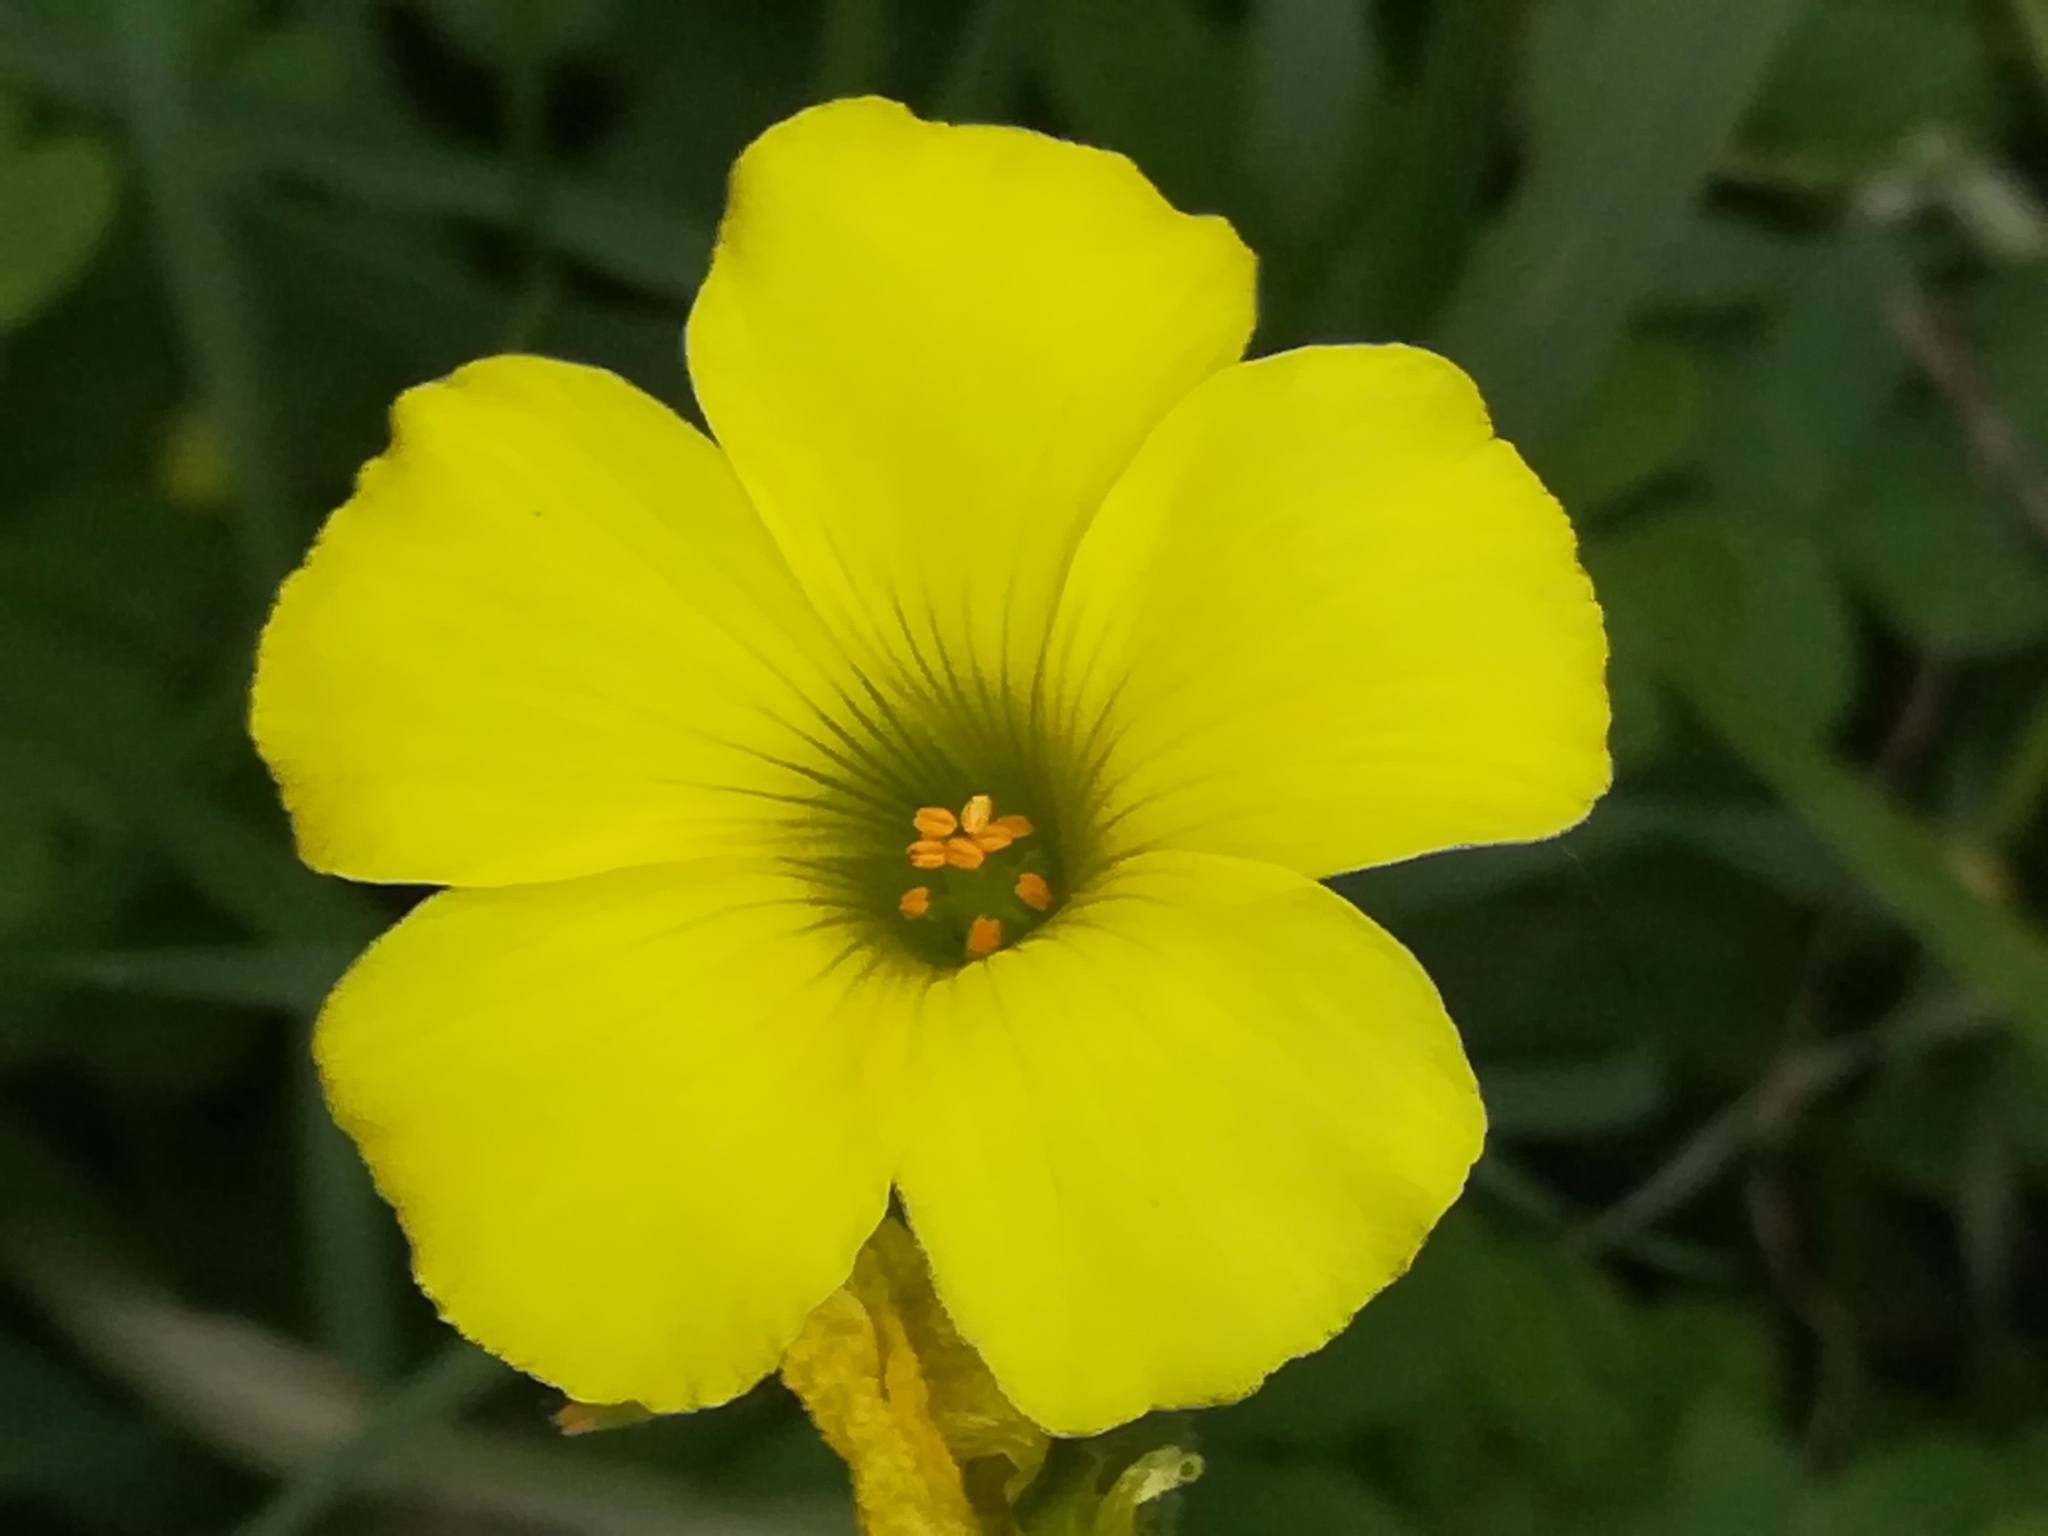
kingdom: Plantae
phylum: Tracheophyta
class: Magnoliopsida
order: Oxalidales
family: Oxalidaceae
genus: Oxalis
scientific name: Oxalis pes-caprae
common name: Bermuda-buttercup
